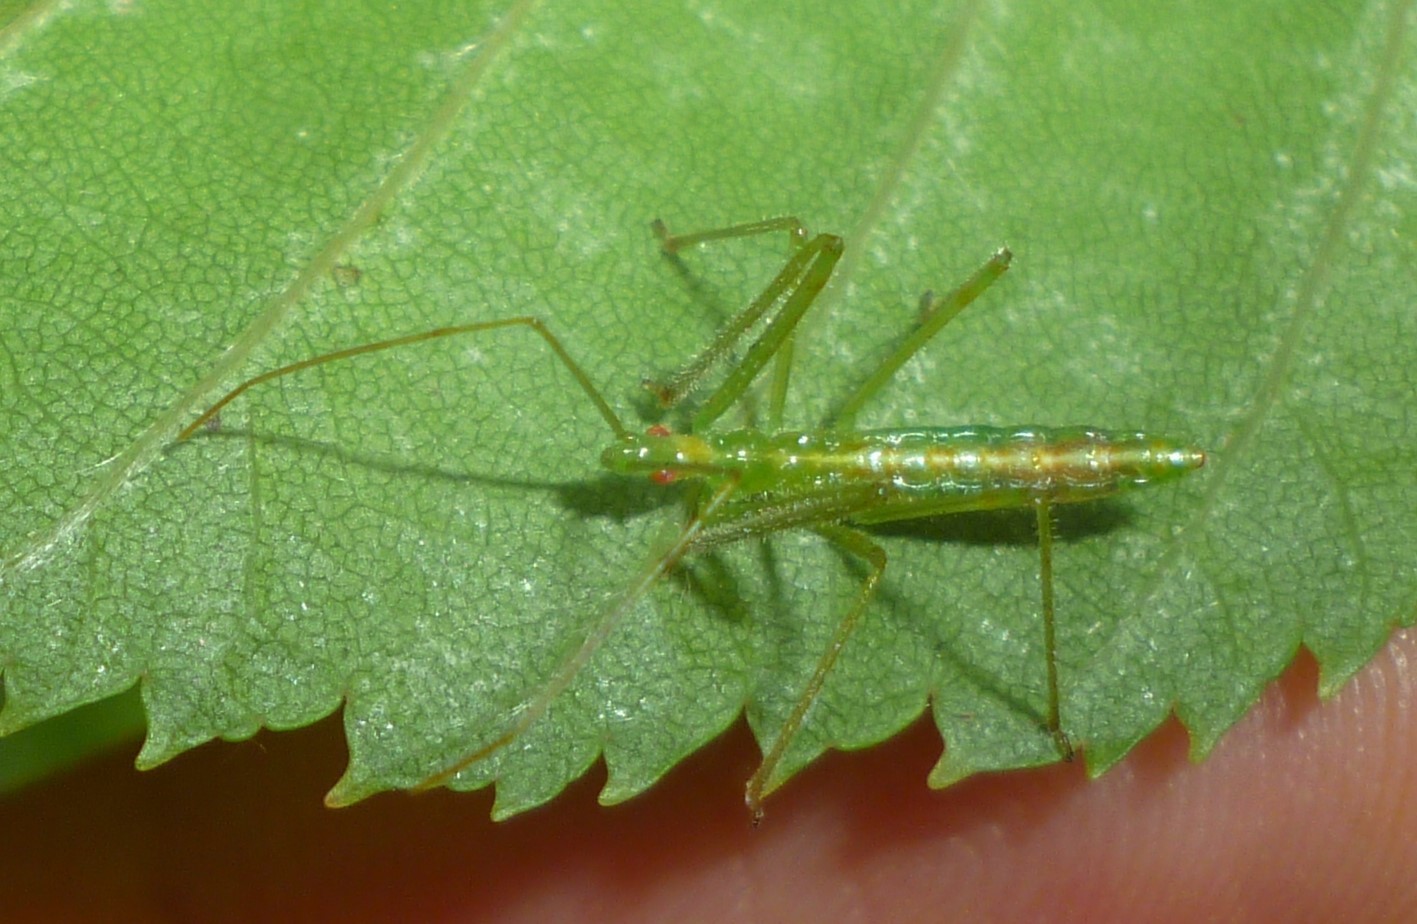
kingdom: Animalia
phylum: Arthropoda
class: Insecta
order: Hemiptera
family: Reduviidae
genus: Zelus
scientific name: Zelus luridus
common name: Pale green assassin bug
